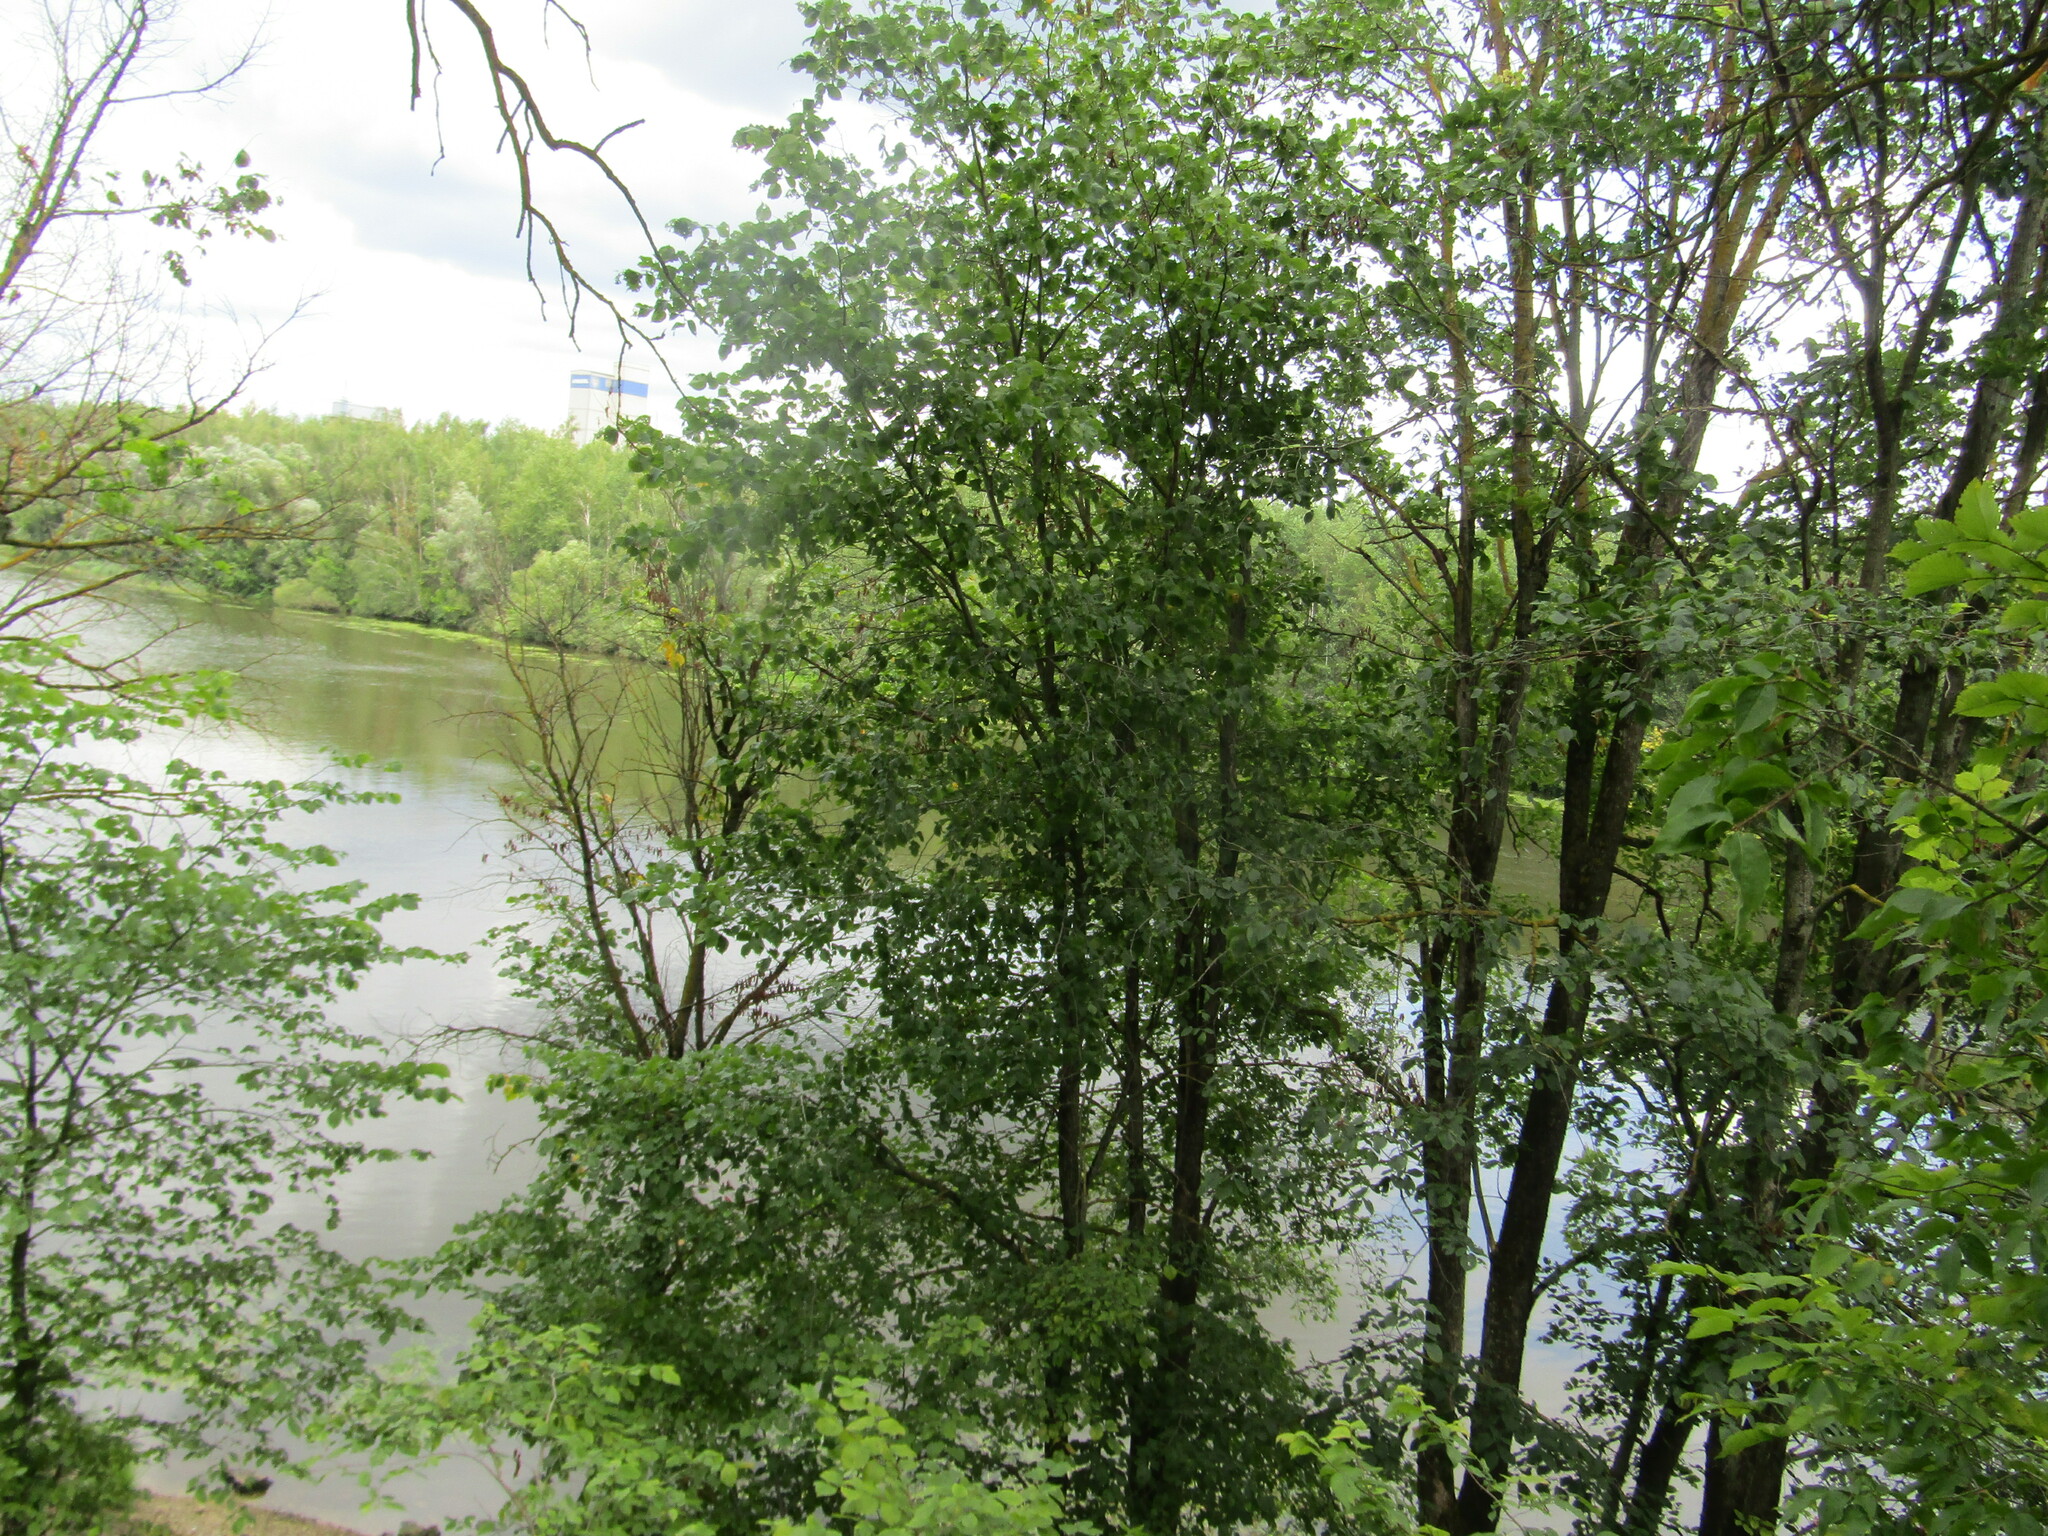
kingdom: Plantae
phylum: Tracheophyta
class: Magnoliopsida
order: Rosales
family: Ulmaceae
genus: Ulmus
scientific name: Ulmus laevis
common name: European white-elm
